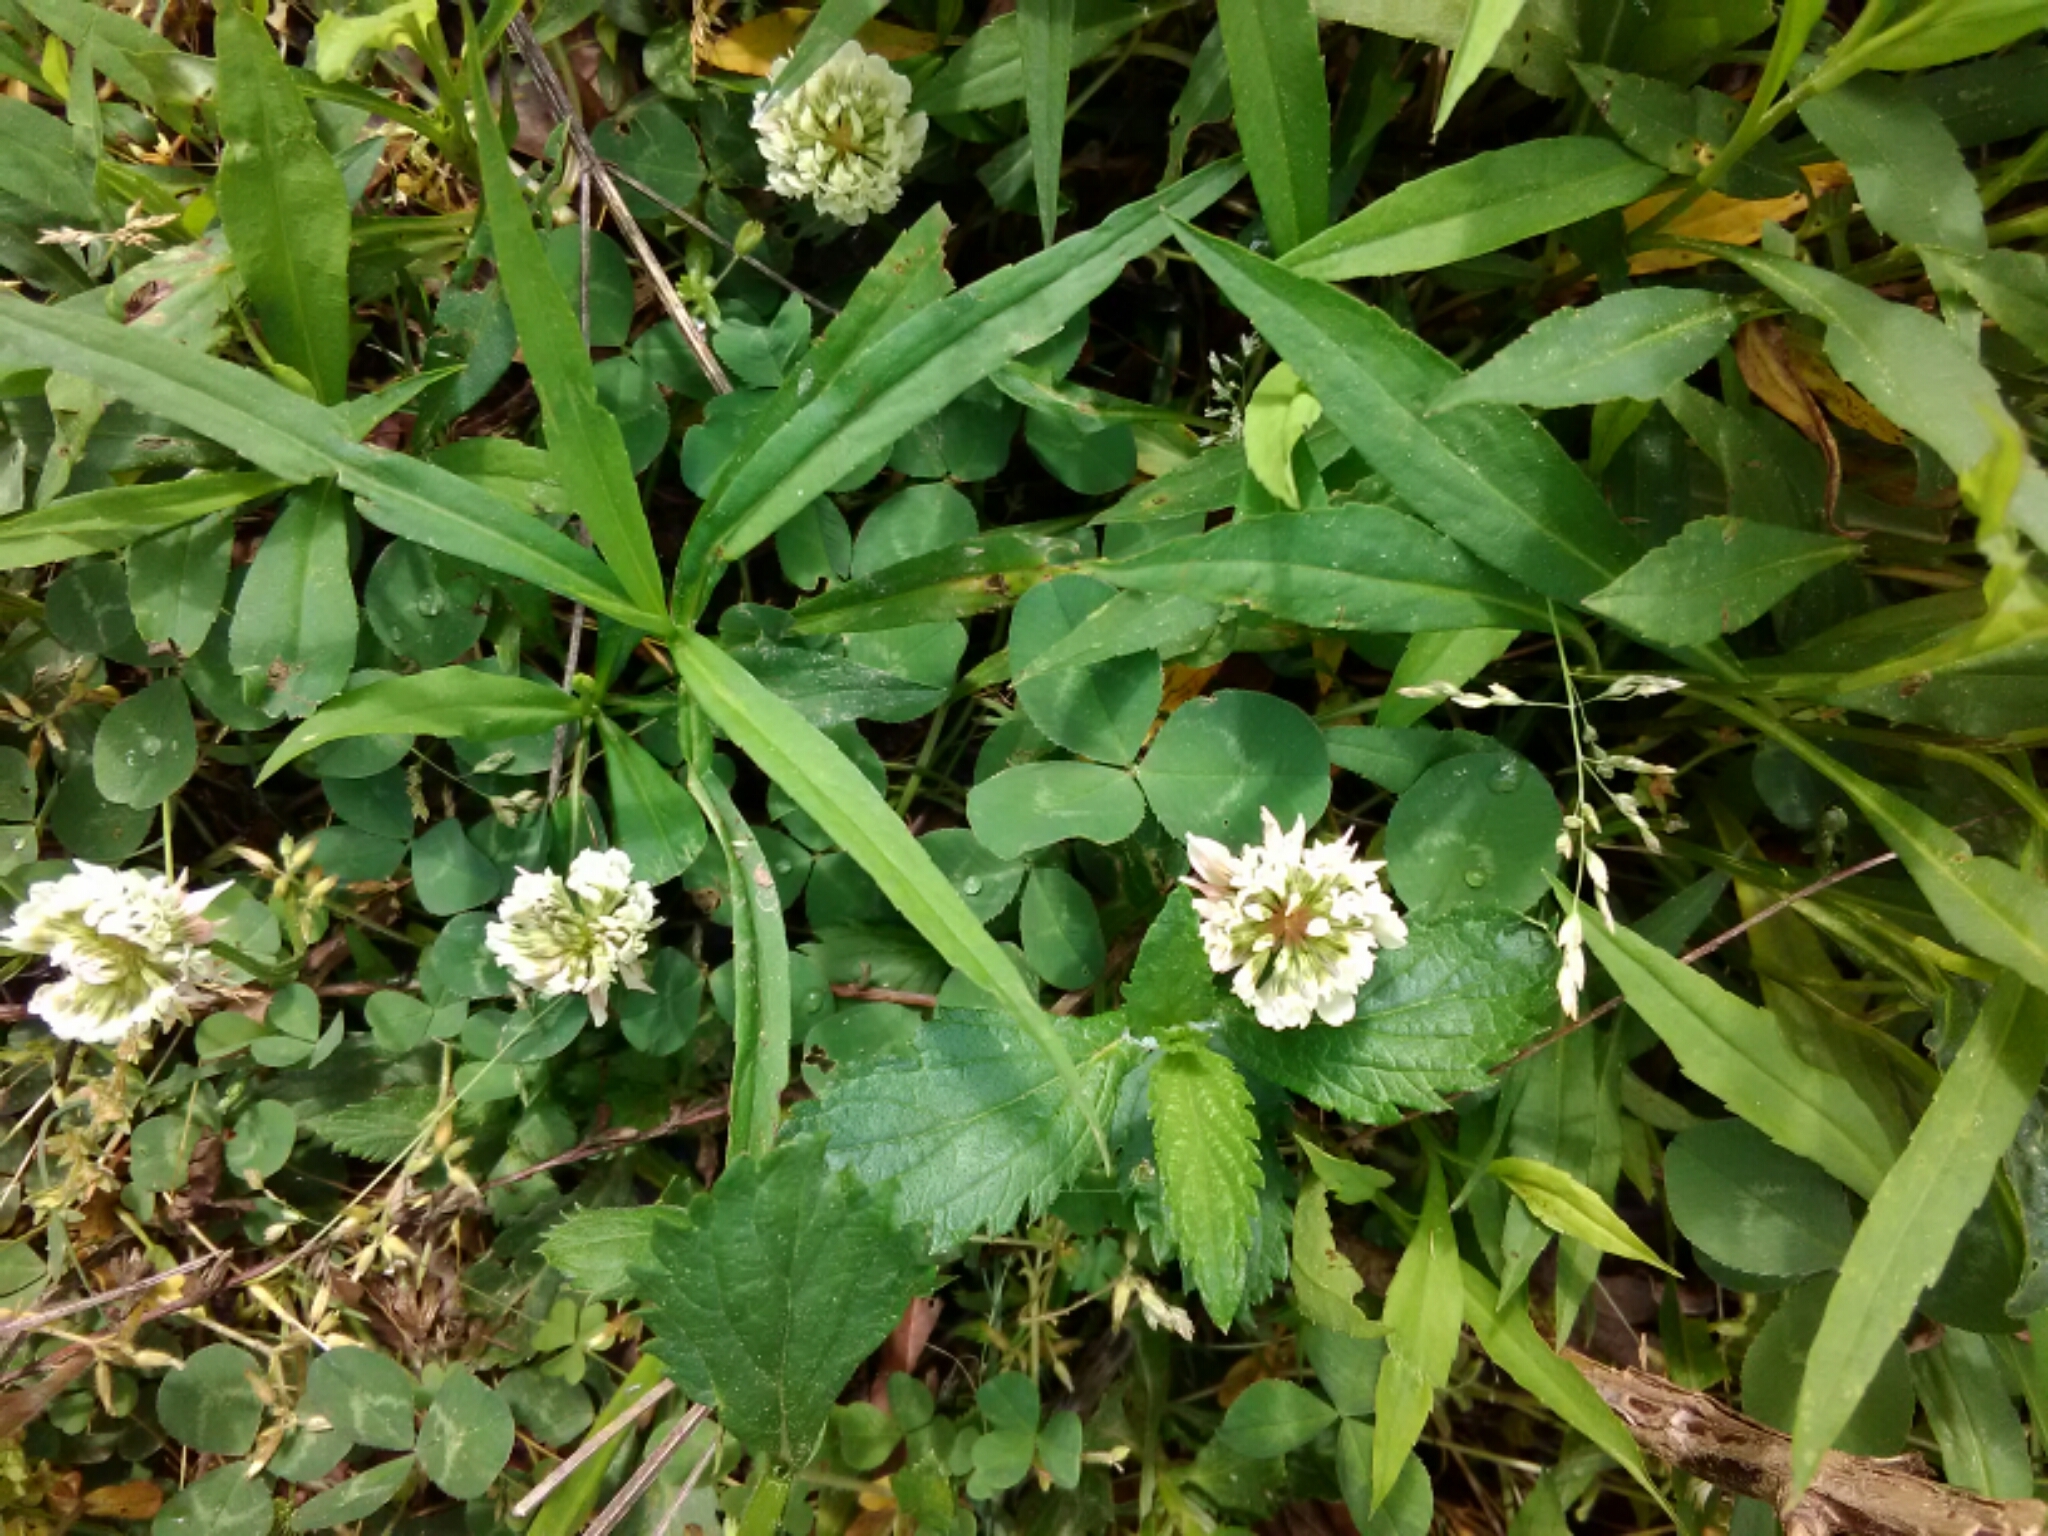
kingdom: Plantae
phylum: Tracheophyta
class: Magnoliopsida
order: Fabales
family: Fabaceae
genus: Trifolium
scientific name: Trifolium repens
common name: White clover
